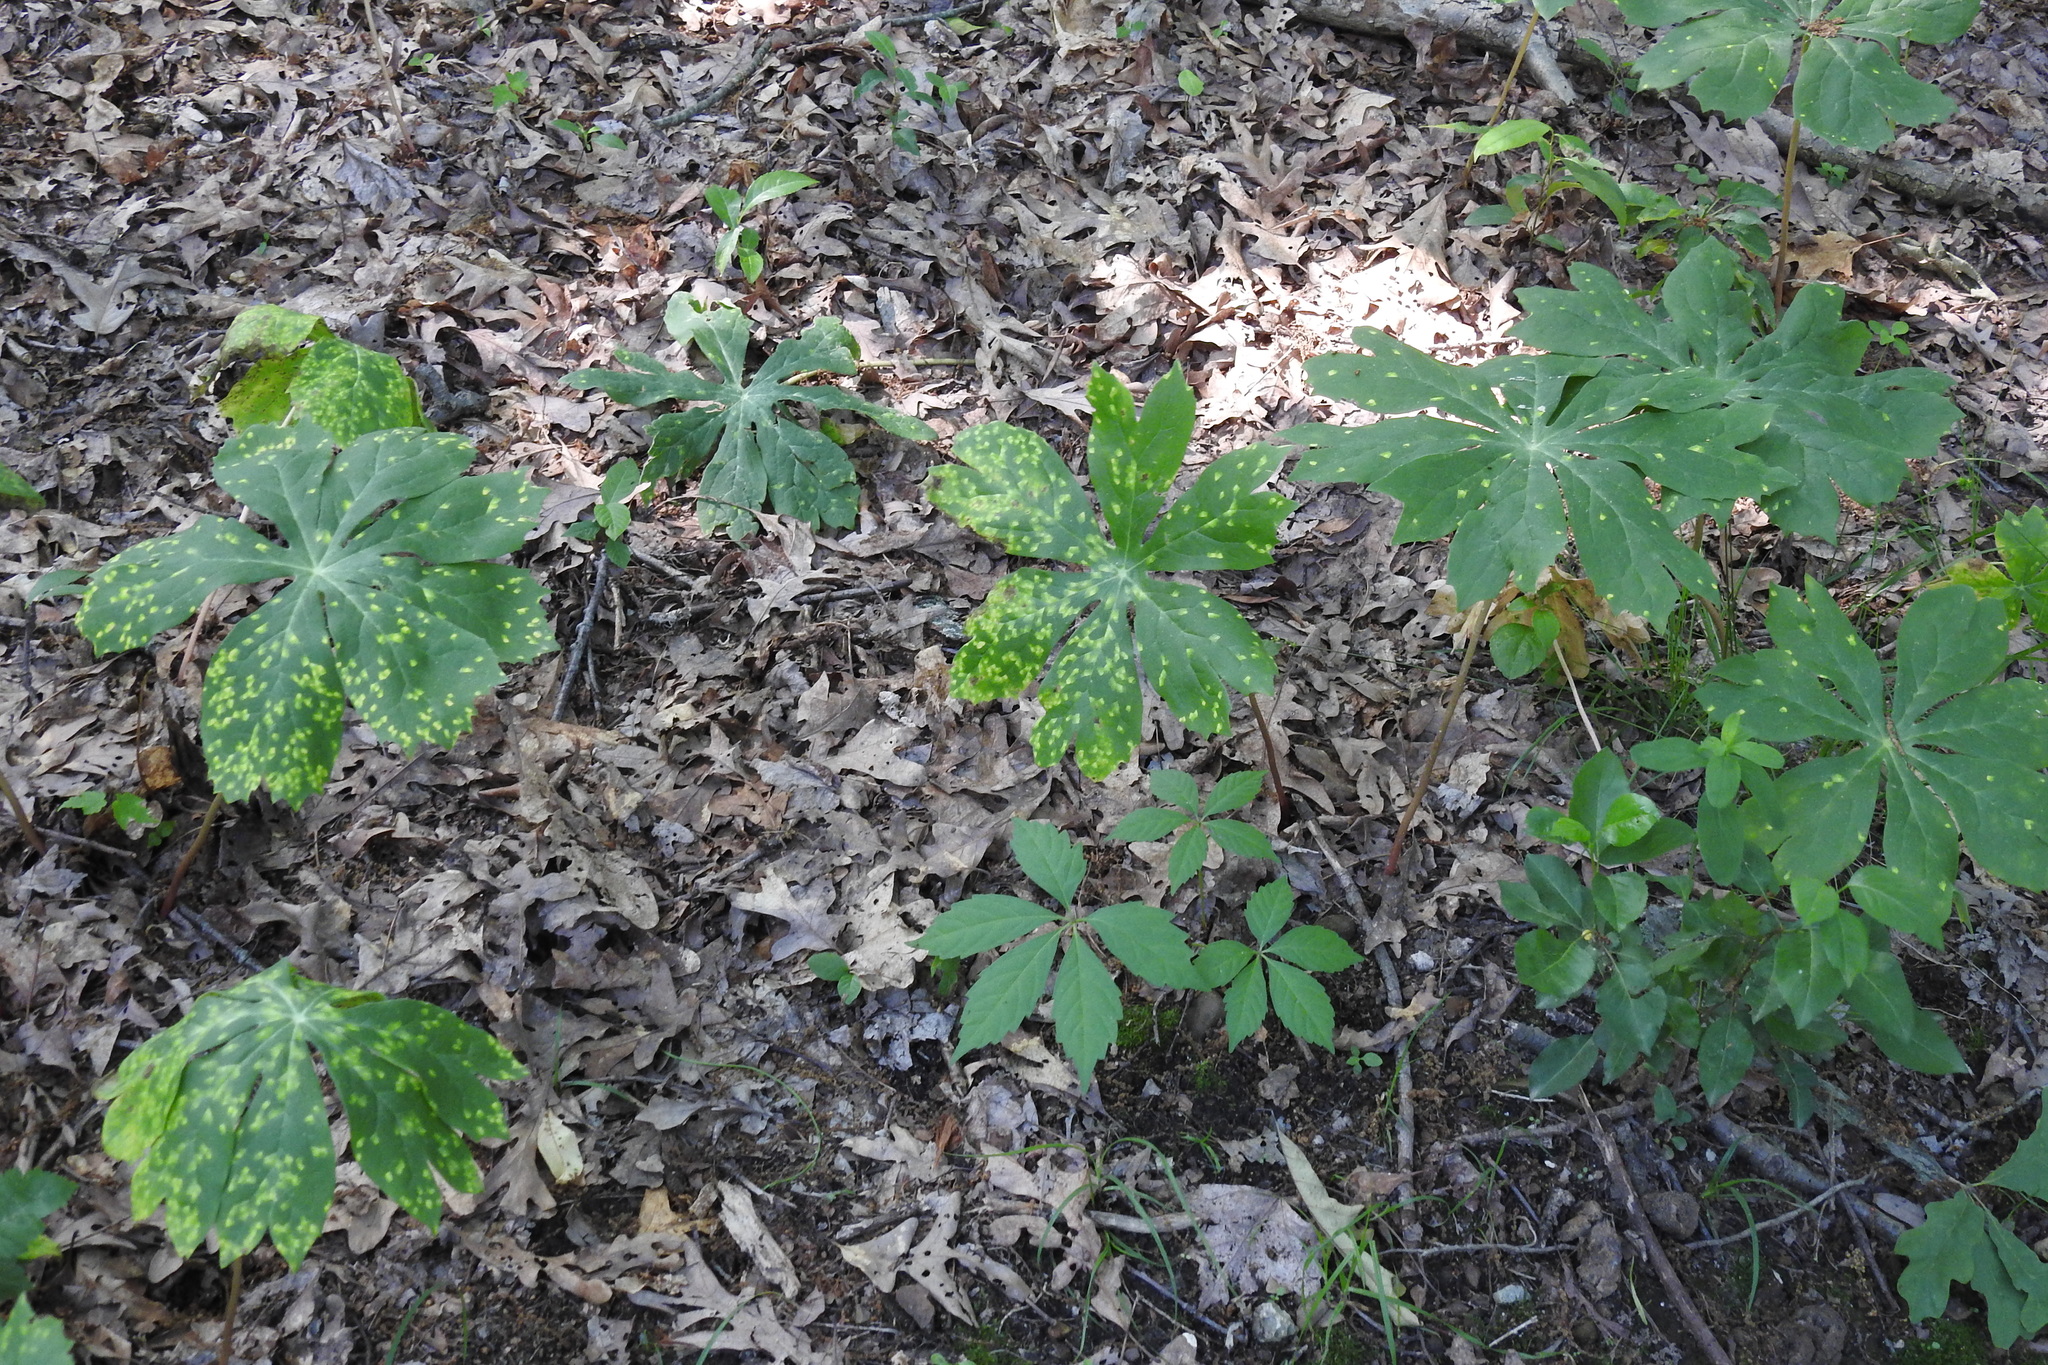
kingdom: Fungi
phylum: Basidiomycota
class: Pucciniomycetes
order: Pucciniales
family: Pucciniaceae
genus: Puccinia
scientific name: Puccinia podophylli
